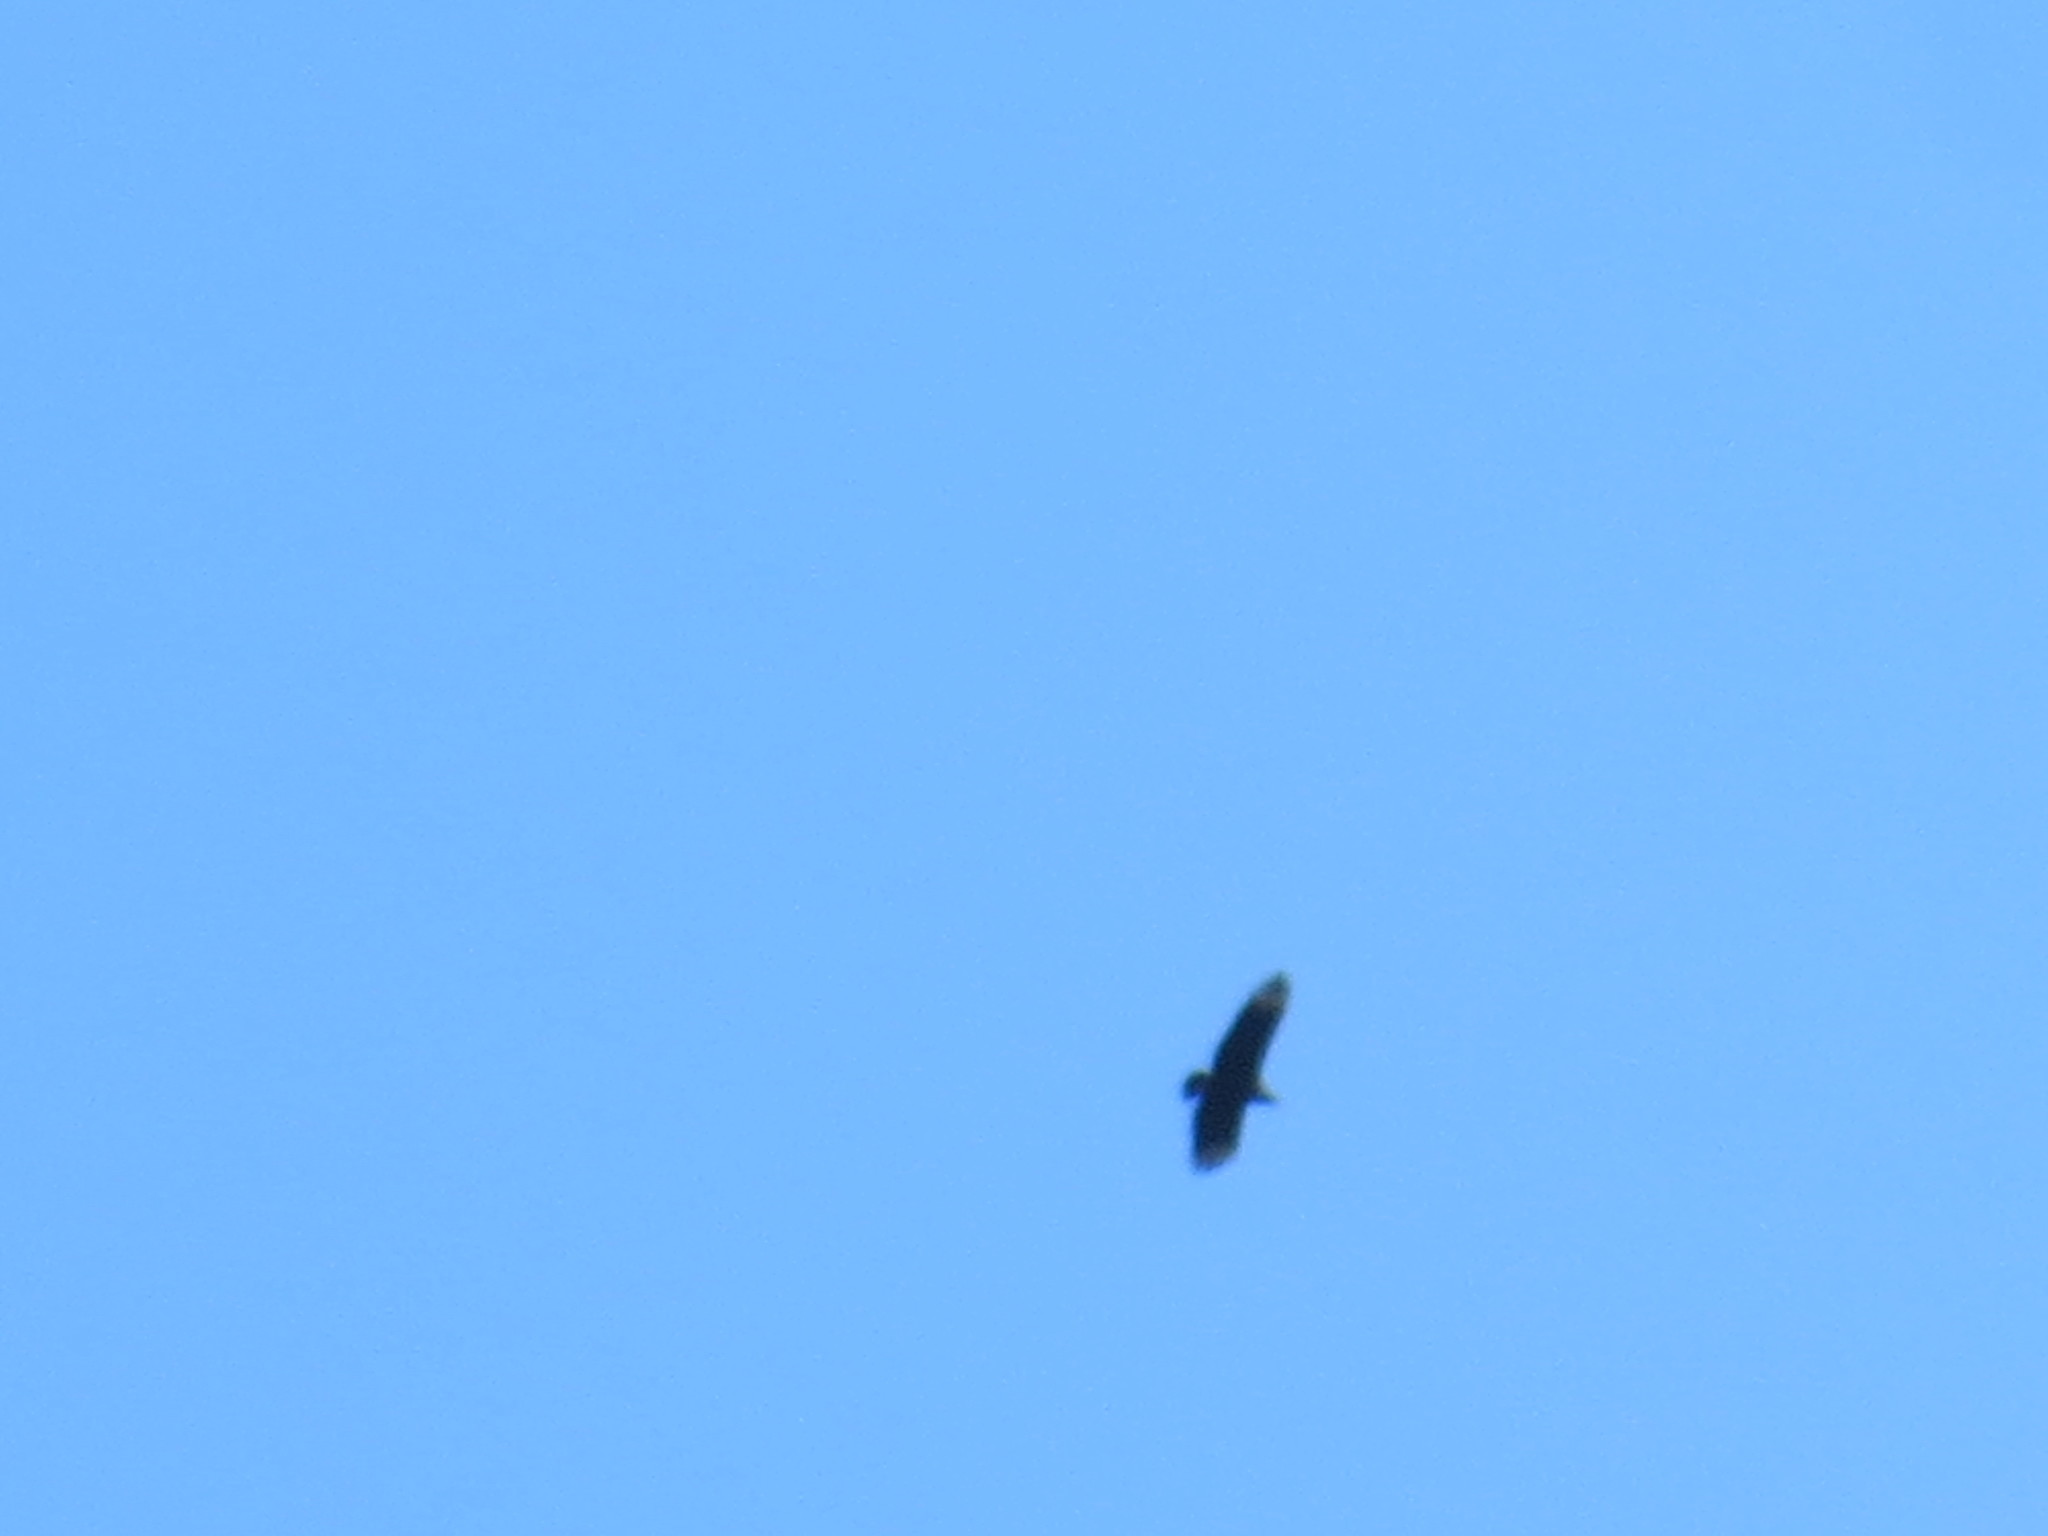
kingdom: Animalia
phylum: Chordata
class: Aves
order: Accipitriformes
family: Cathartidae
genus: Coragyps
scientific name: Coragyps atratus
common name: Black vulture
